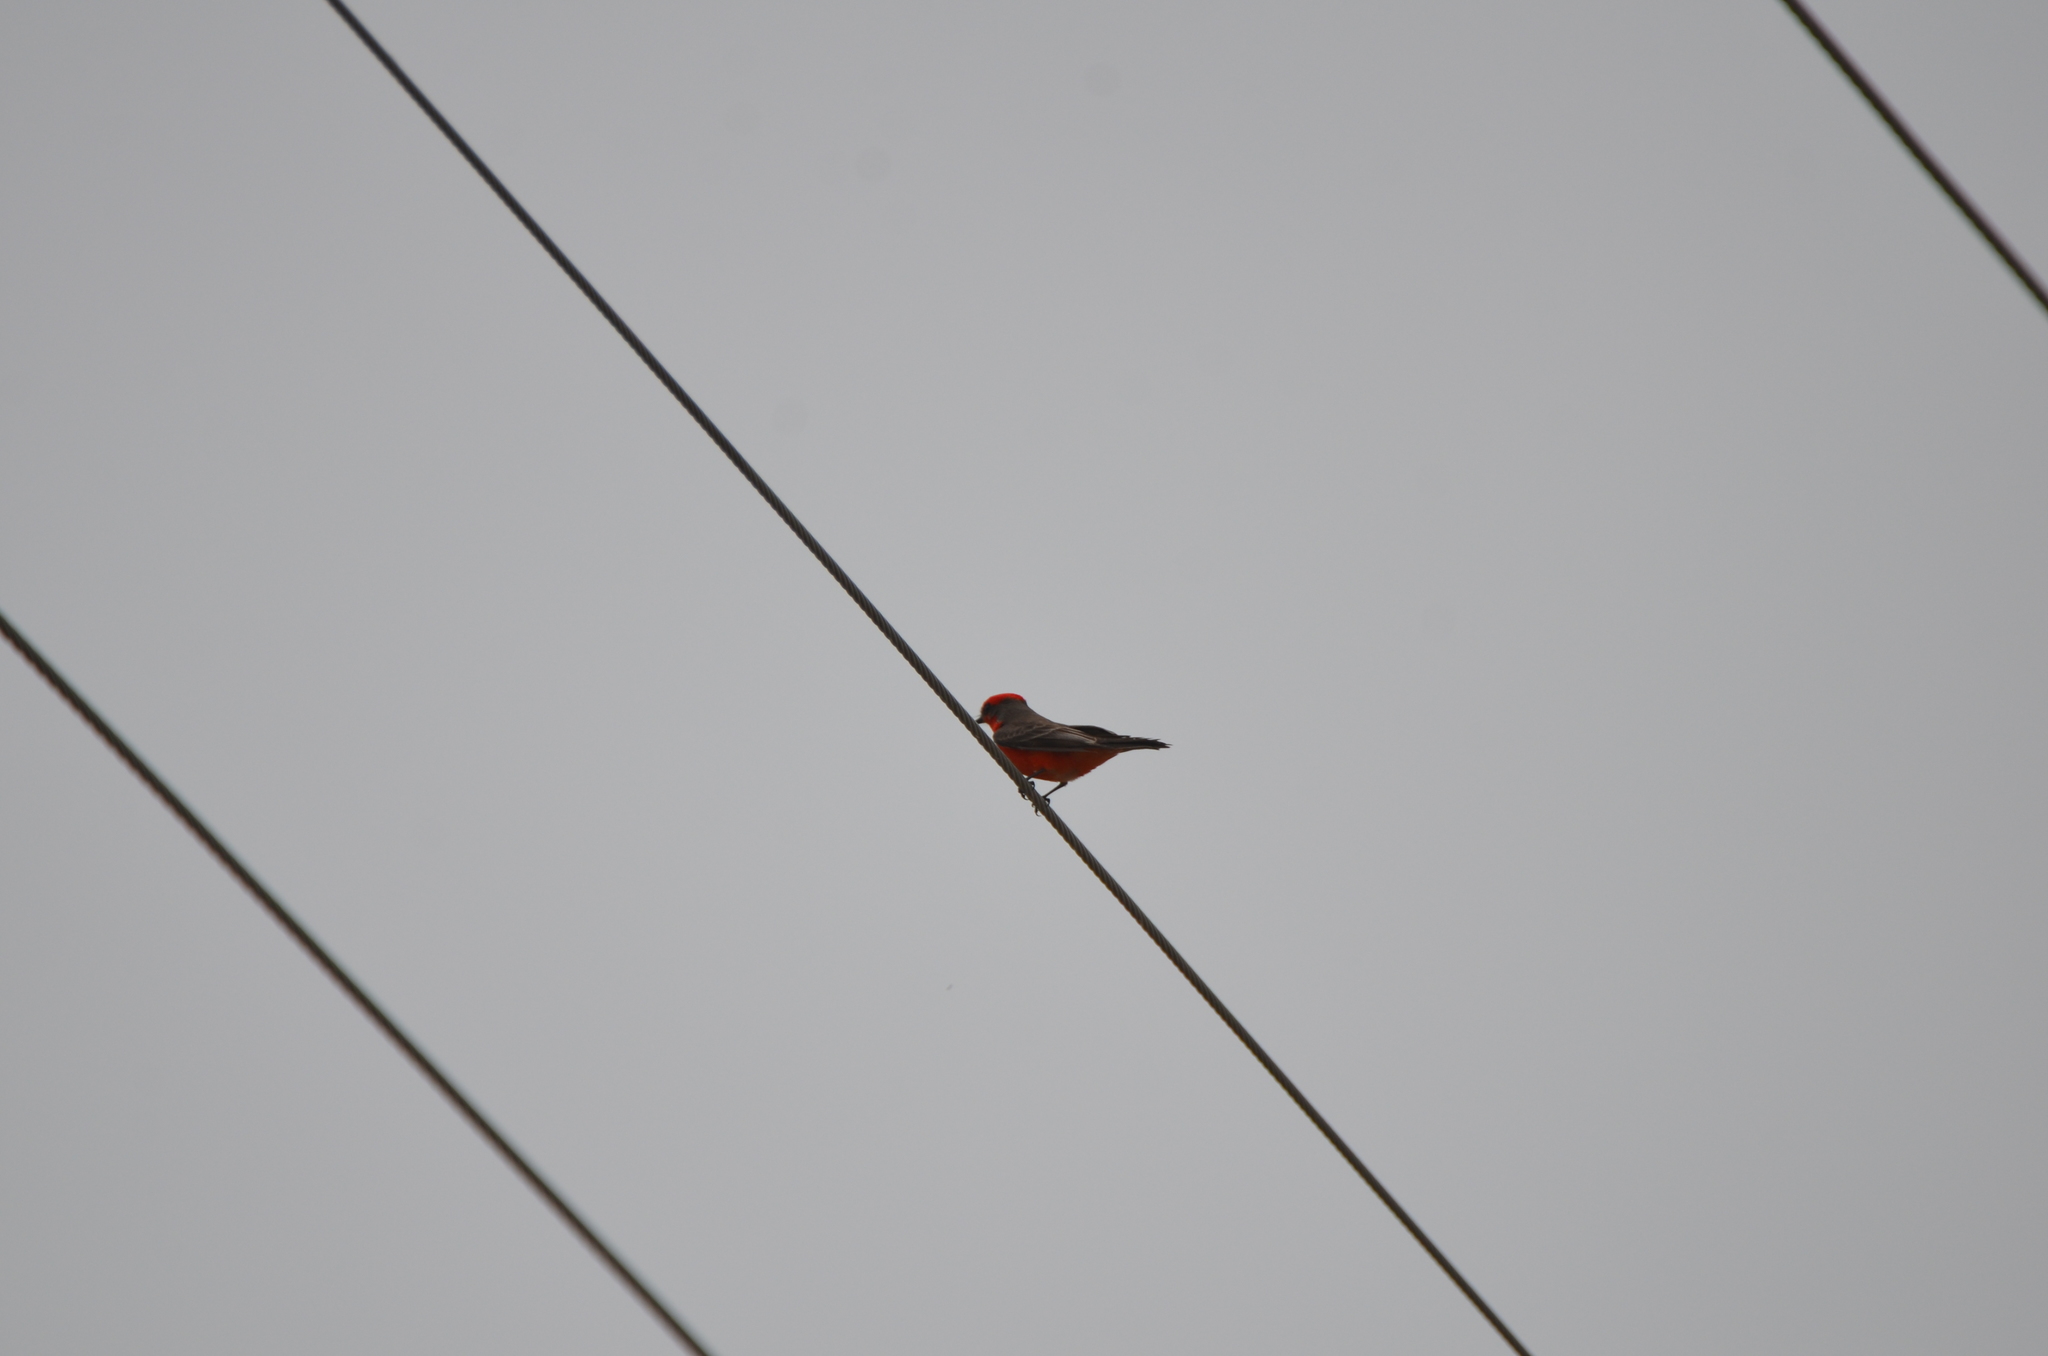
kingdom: Animalia
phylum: Chordata
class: Aves
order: Passeriformes
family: Tyrannidae
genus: Pyrocephalus
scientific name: Pyrocephalus rubinus
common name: Vermilion flycatcher
